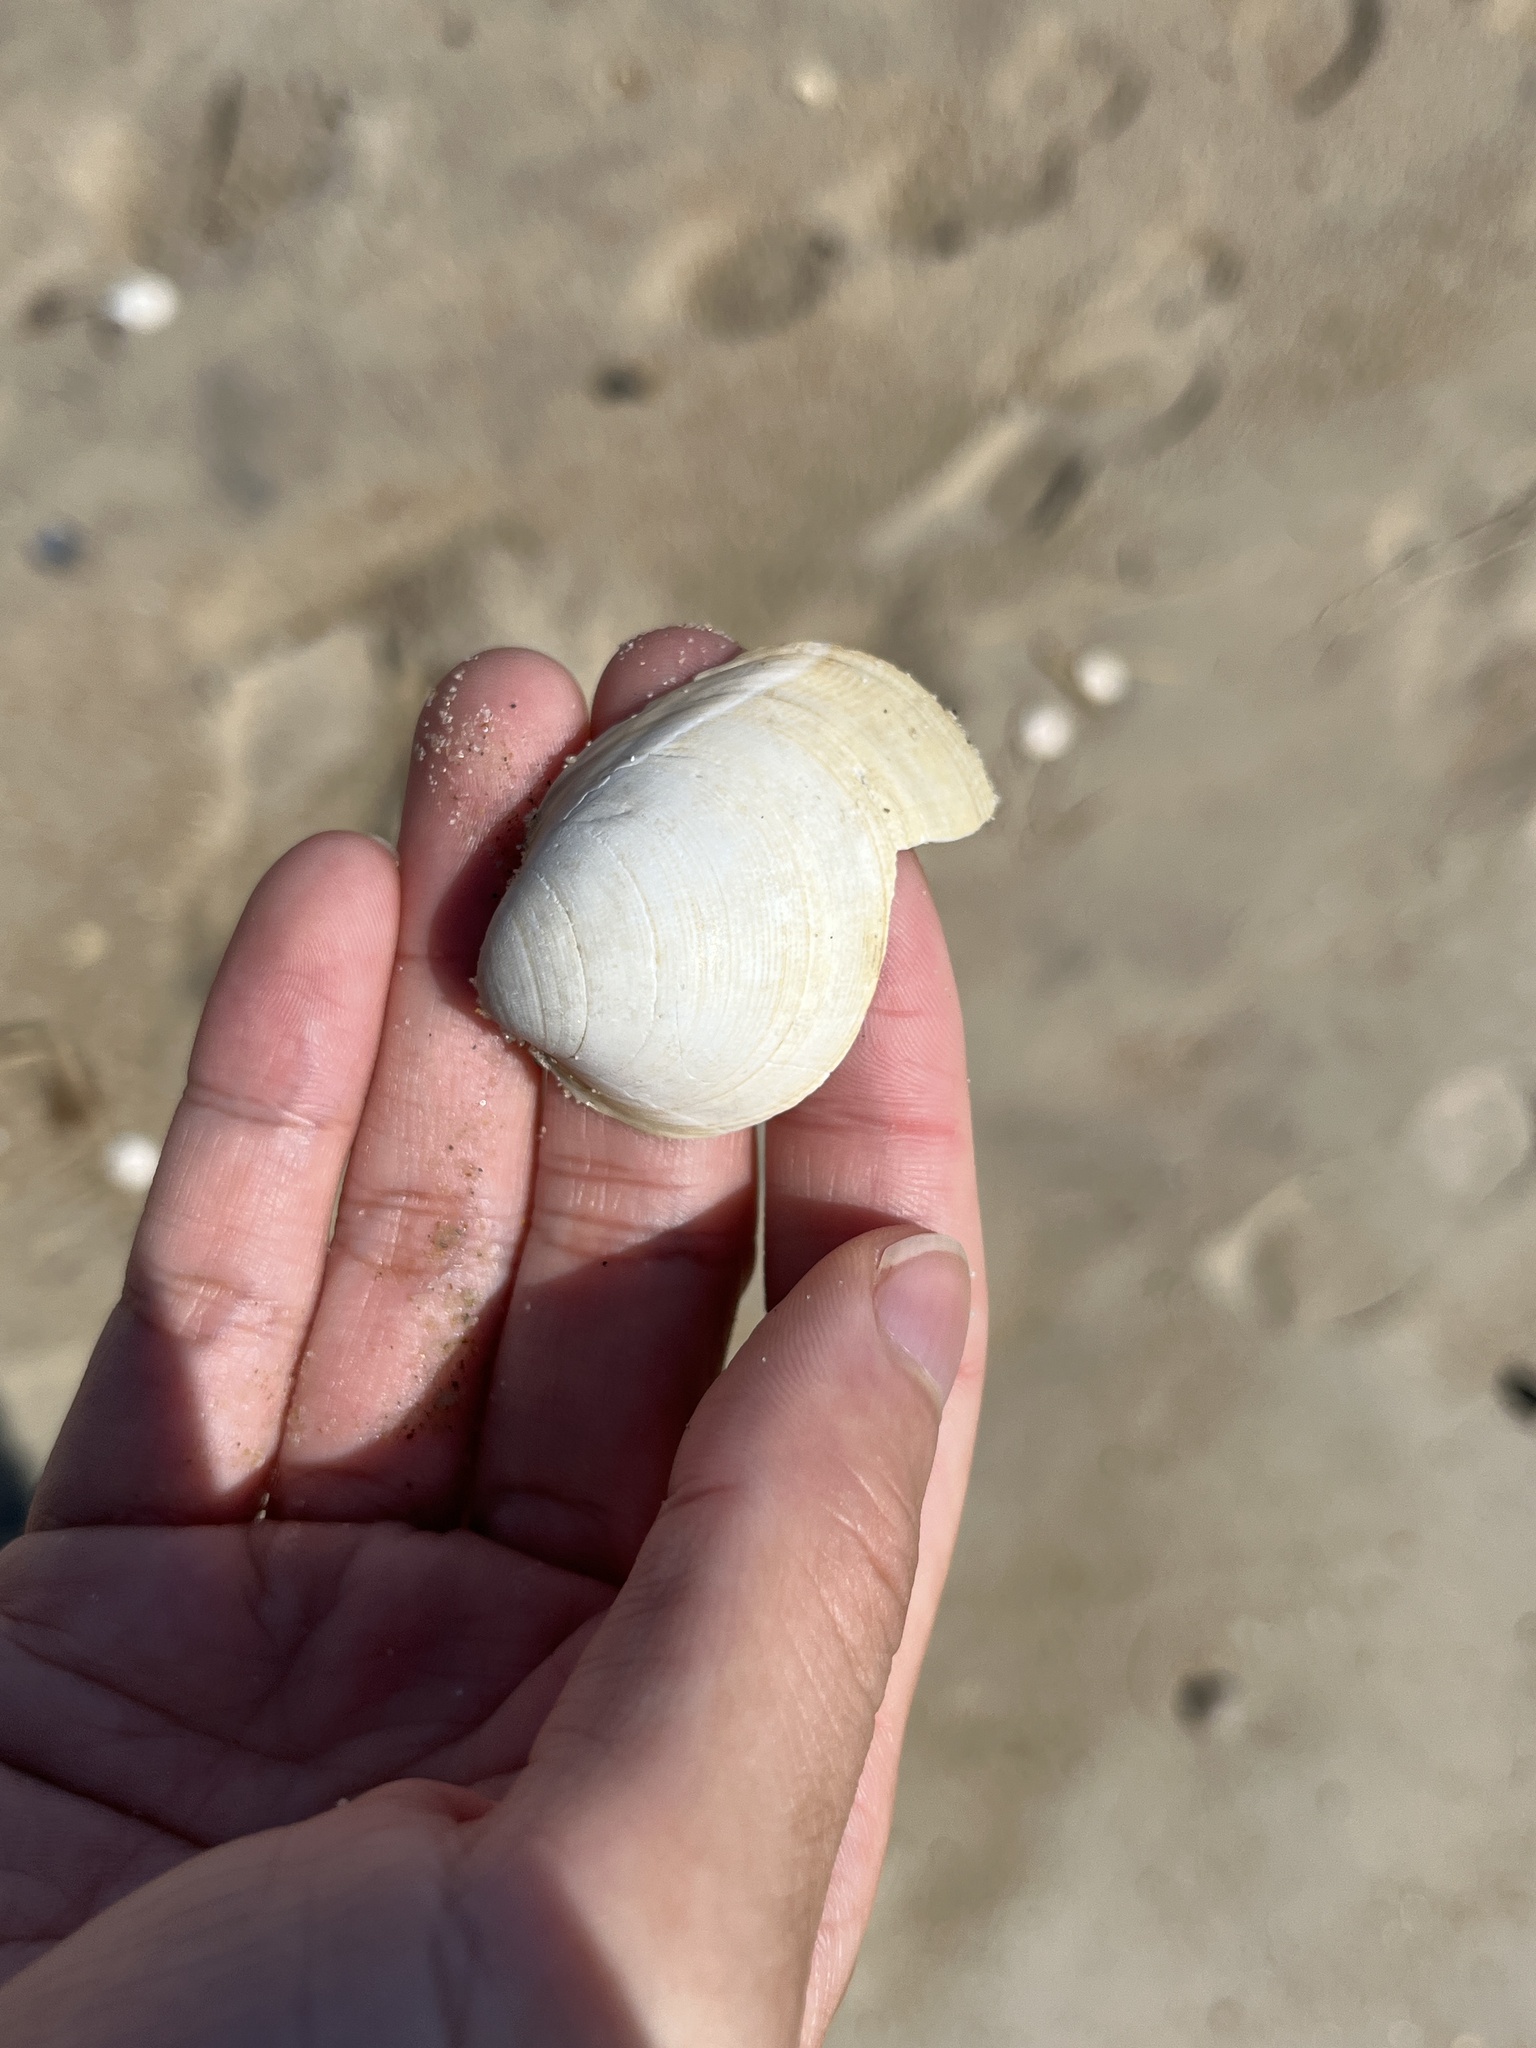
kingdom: Animalia
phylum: Mollusca
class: Bivalvia
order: Cardiida
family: Cardiidae
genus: Laevicardium
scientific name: Laevicardium serratum
